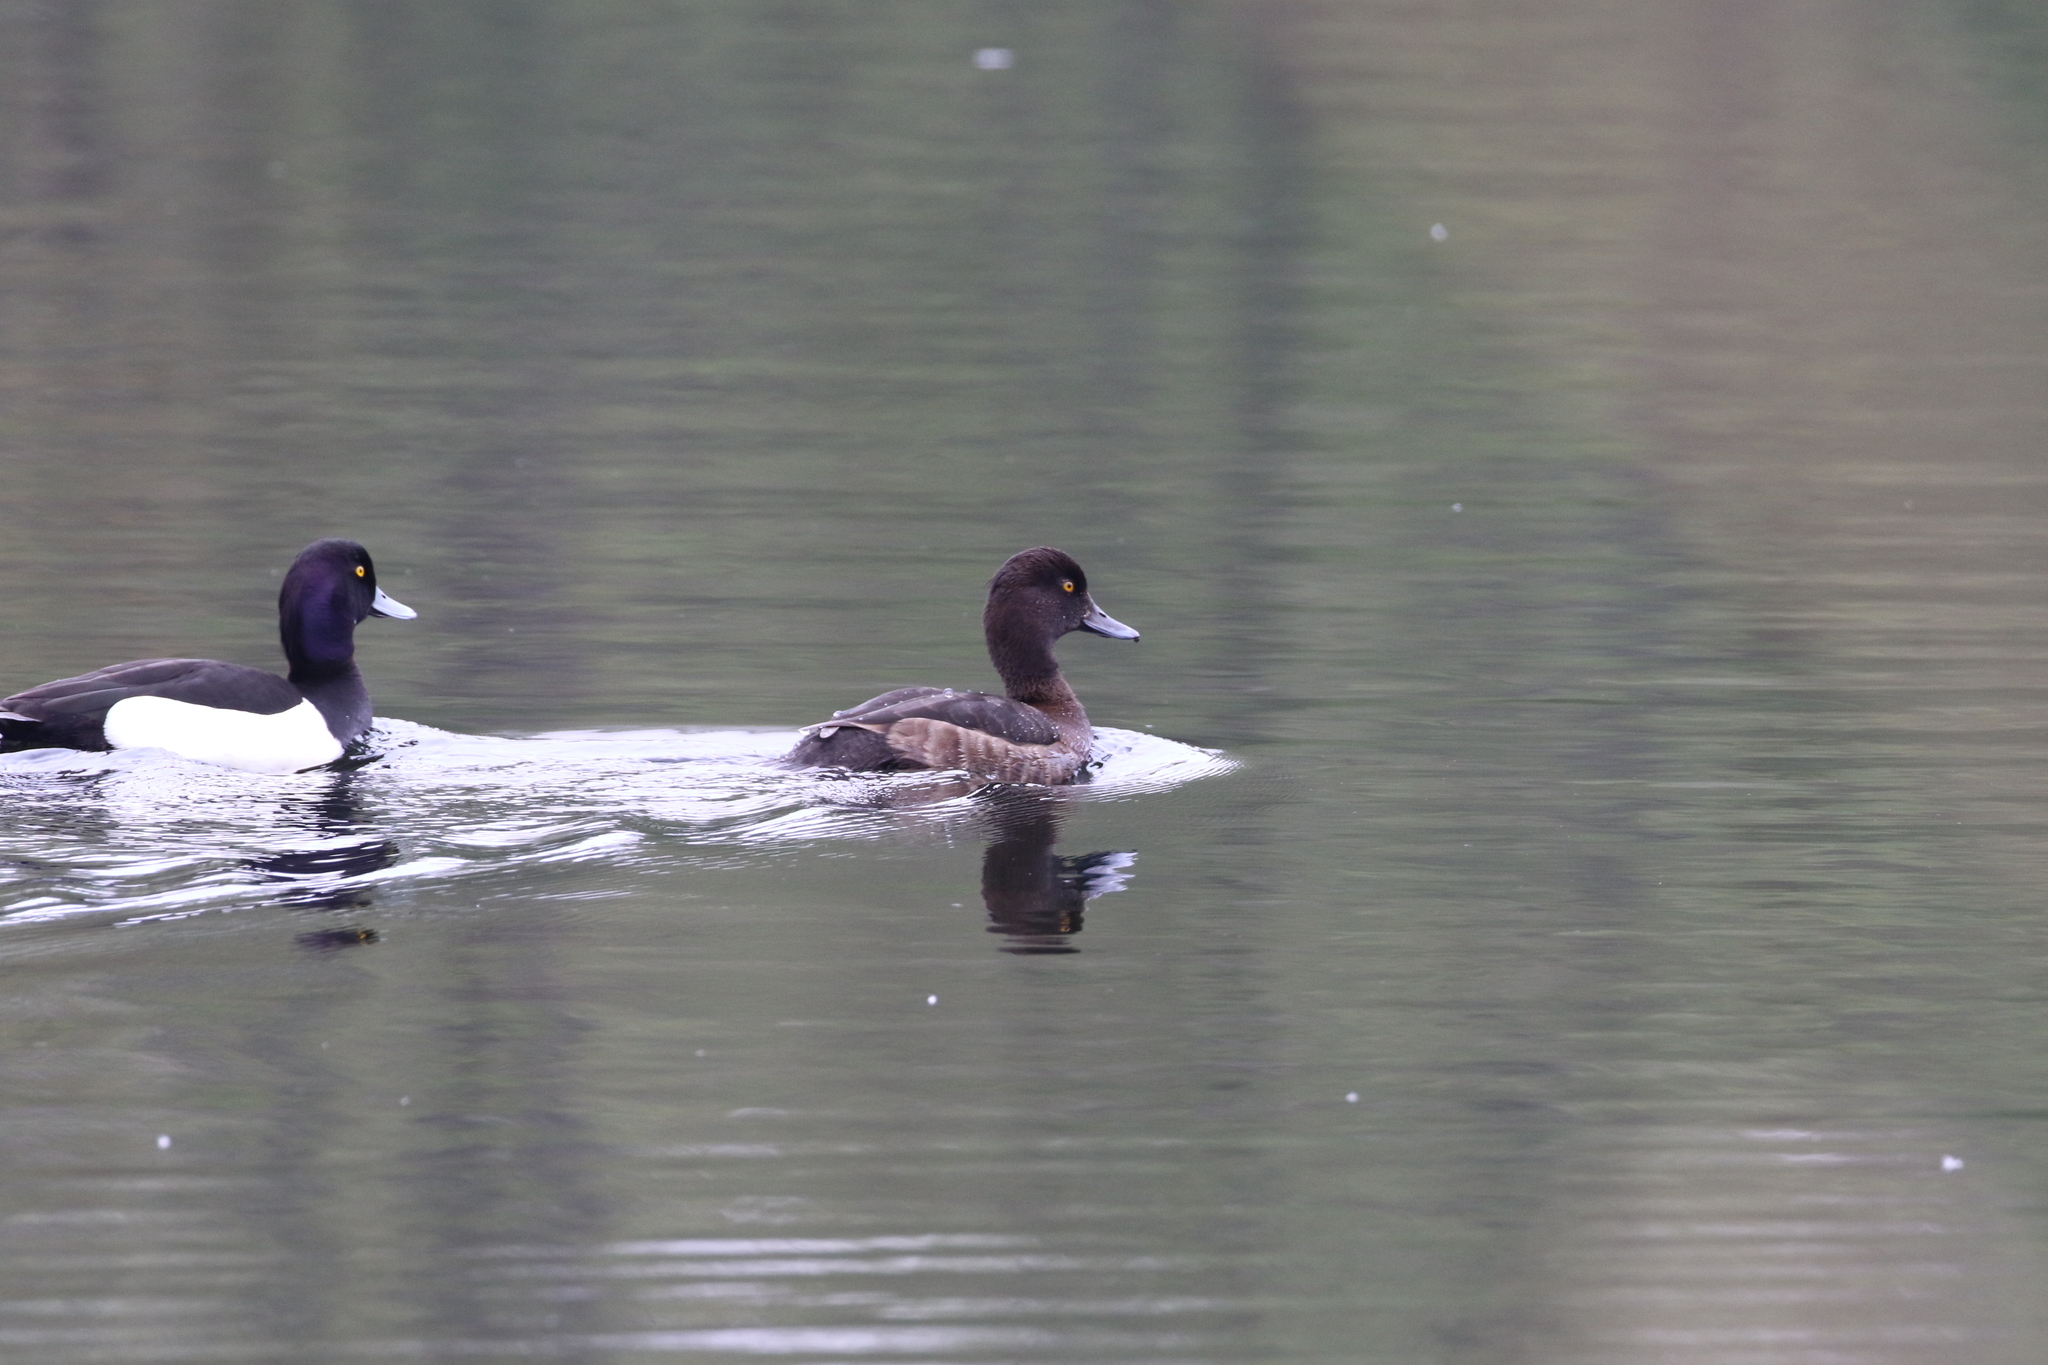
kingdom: Animalia
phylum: Chordata
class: Aves
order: Anseriformes
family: Anatidae
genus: Aythya
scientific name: Aythya fuligula
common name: Tufted duck
